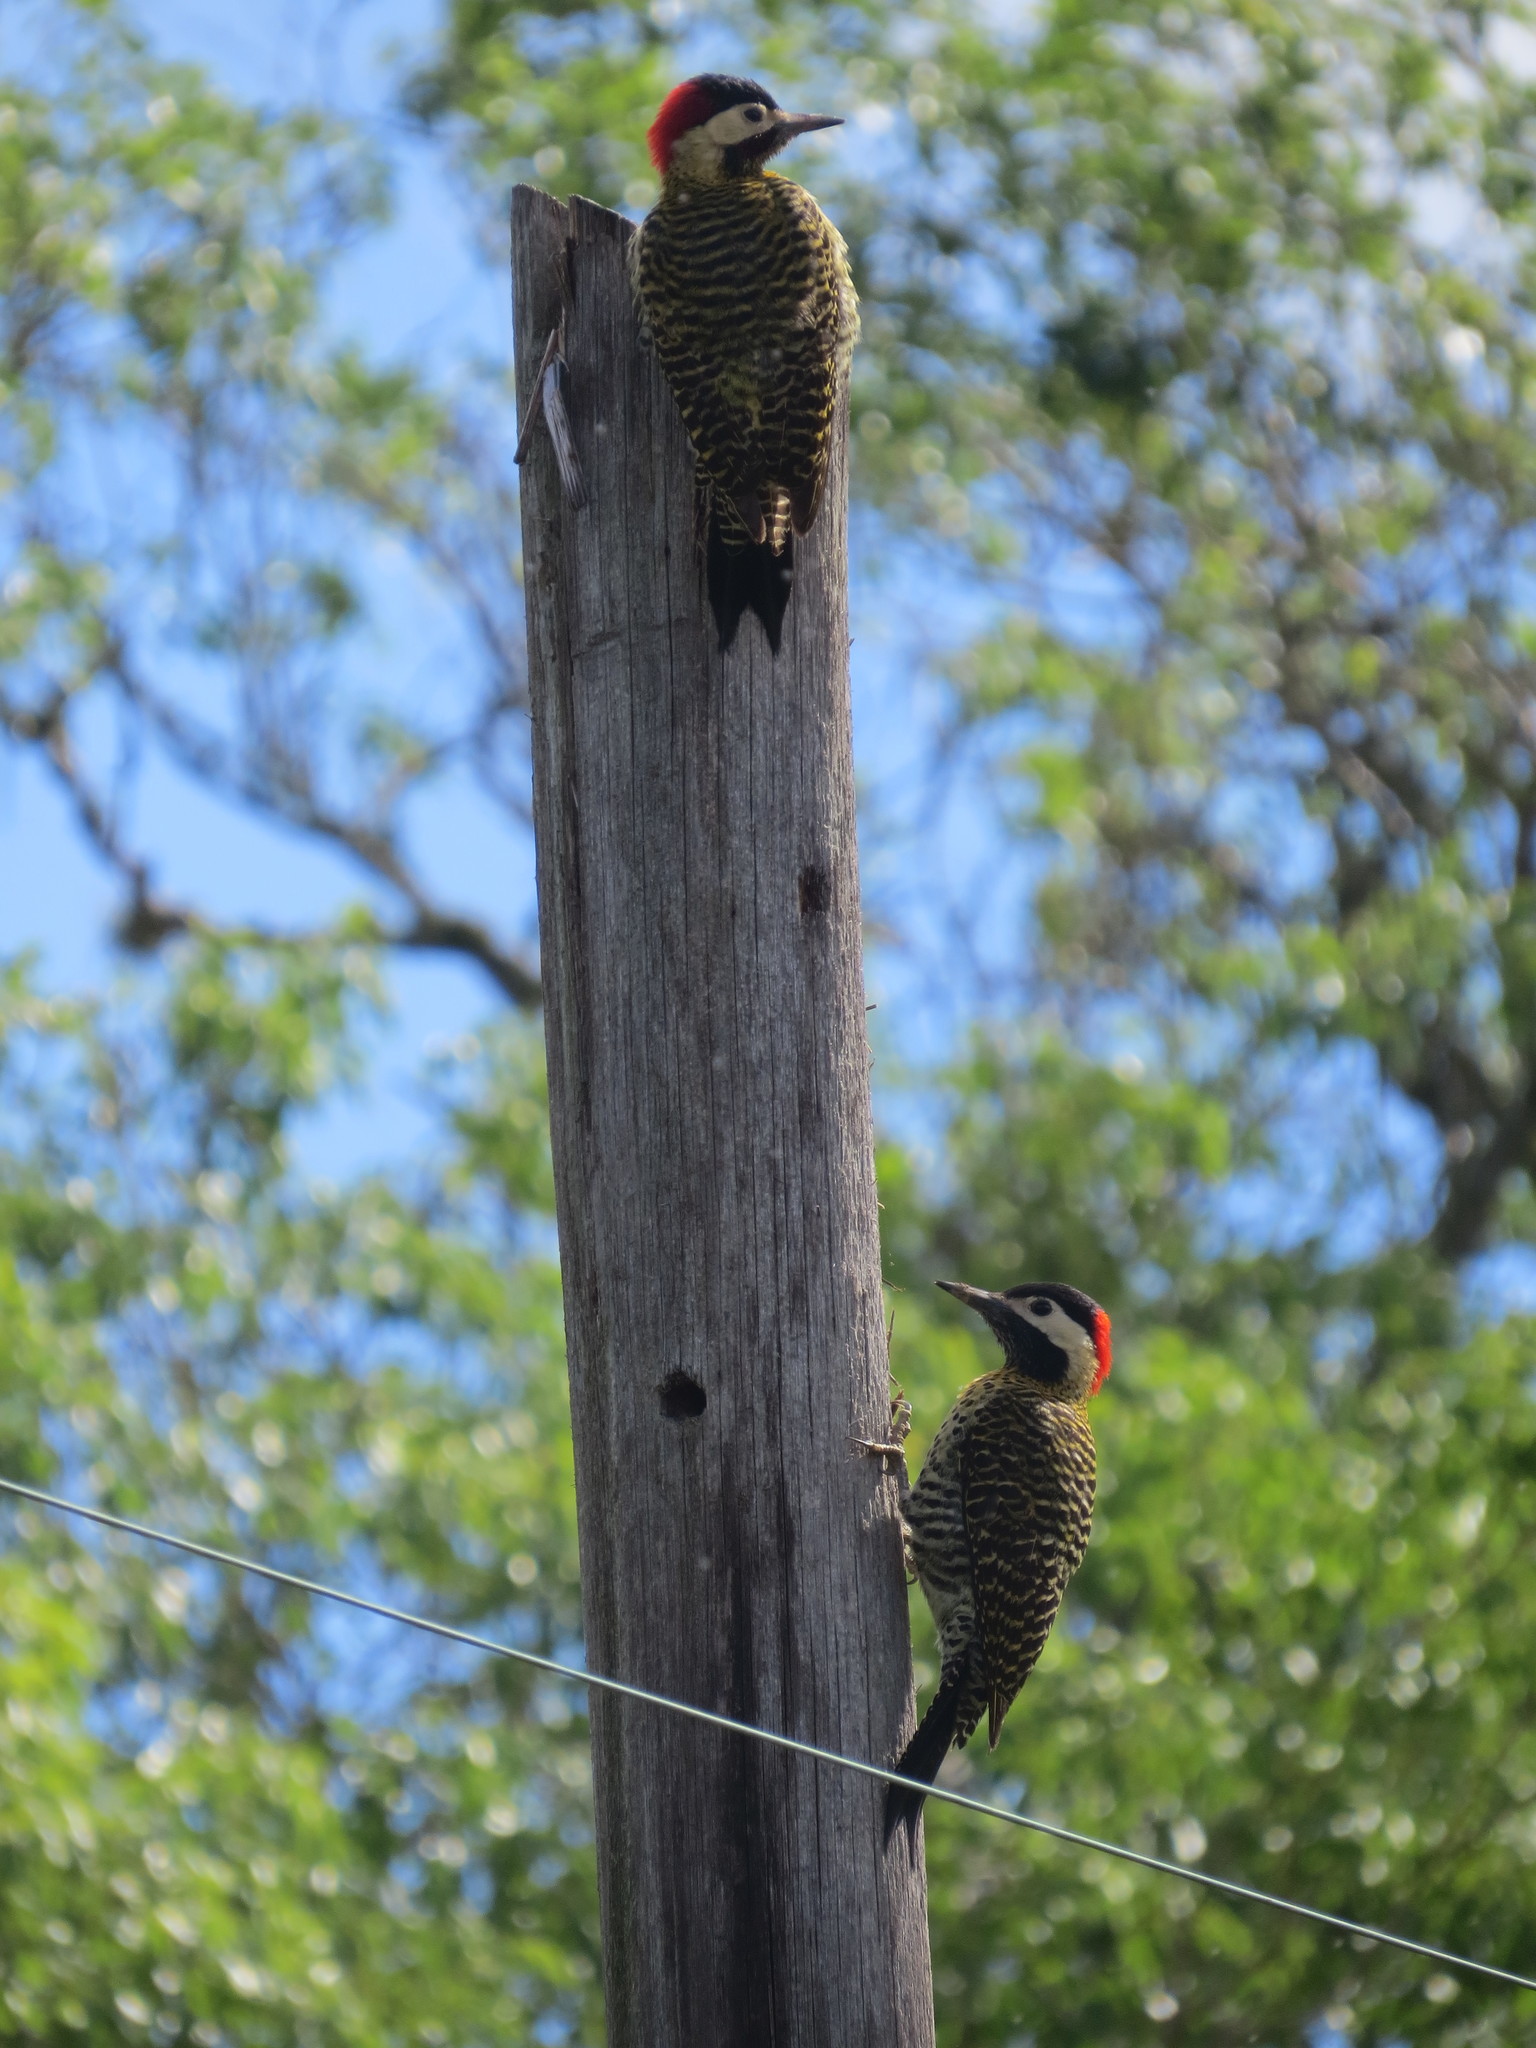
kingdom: Animalia
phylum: Chordata
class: Aves
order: Piciformes
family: Picidae
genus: Colaptes
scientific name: Colaptes melanochloros
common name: Green-barred woodpecker
